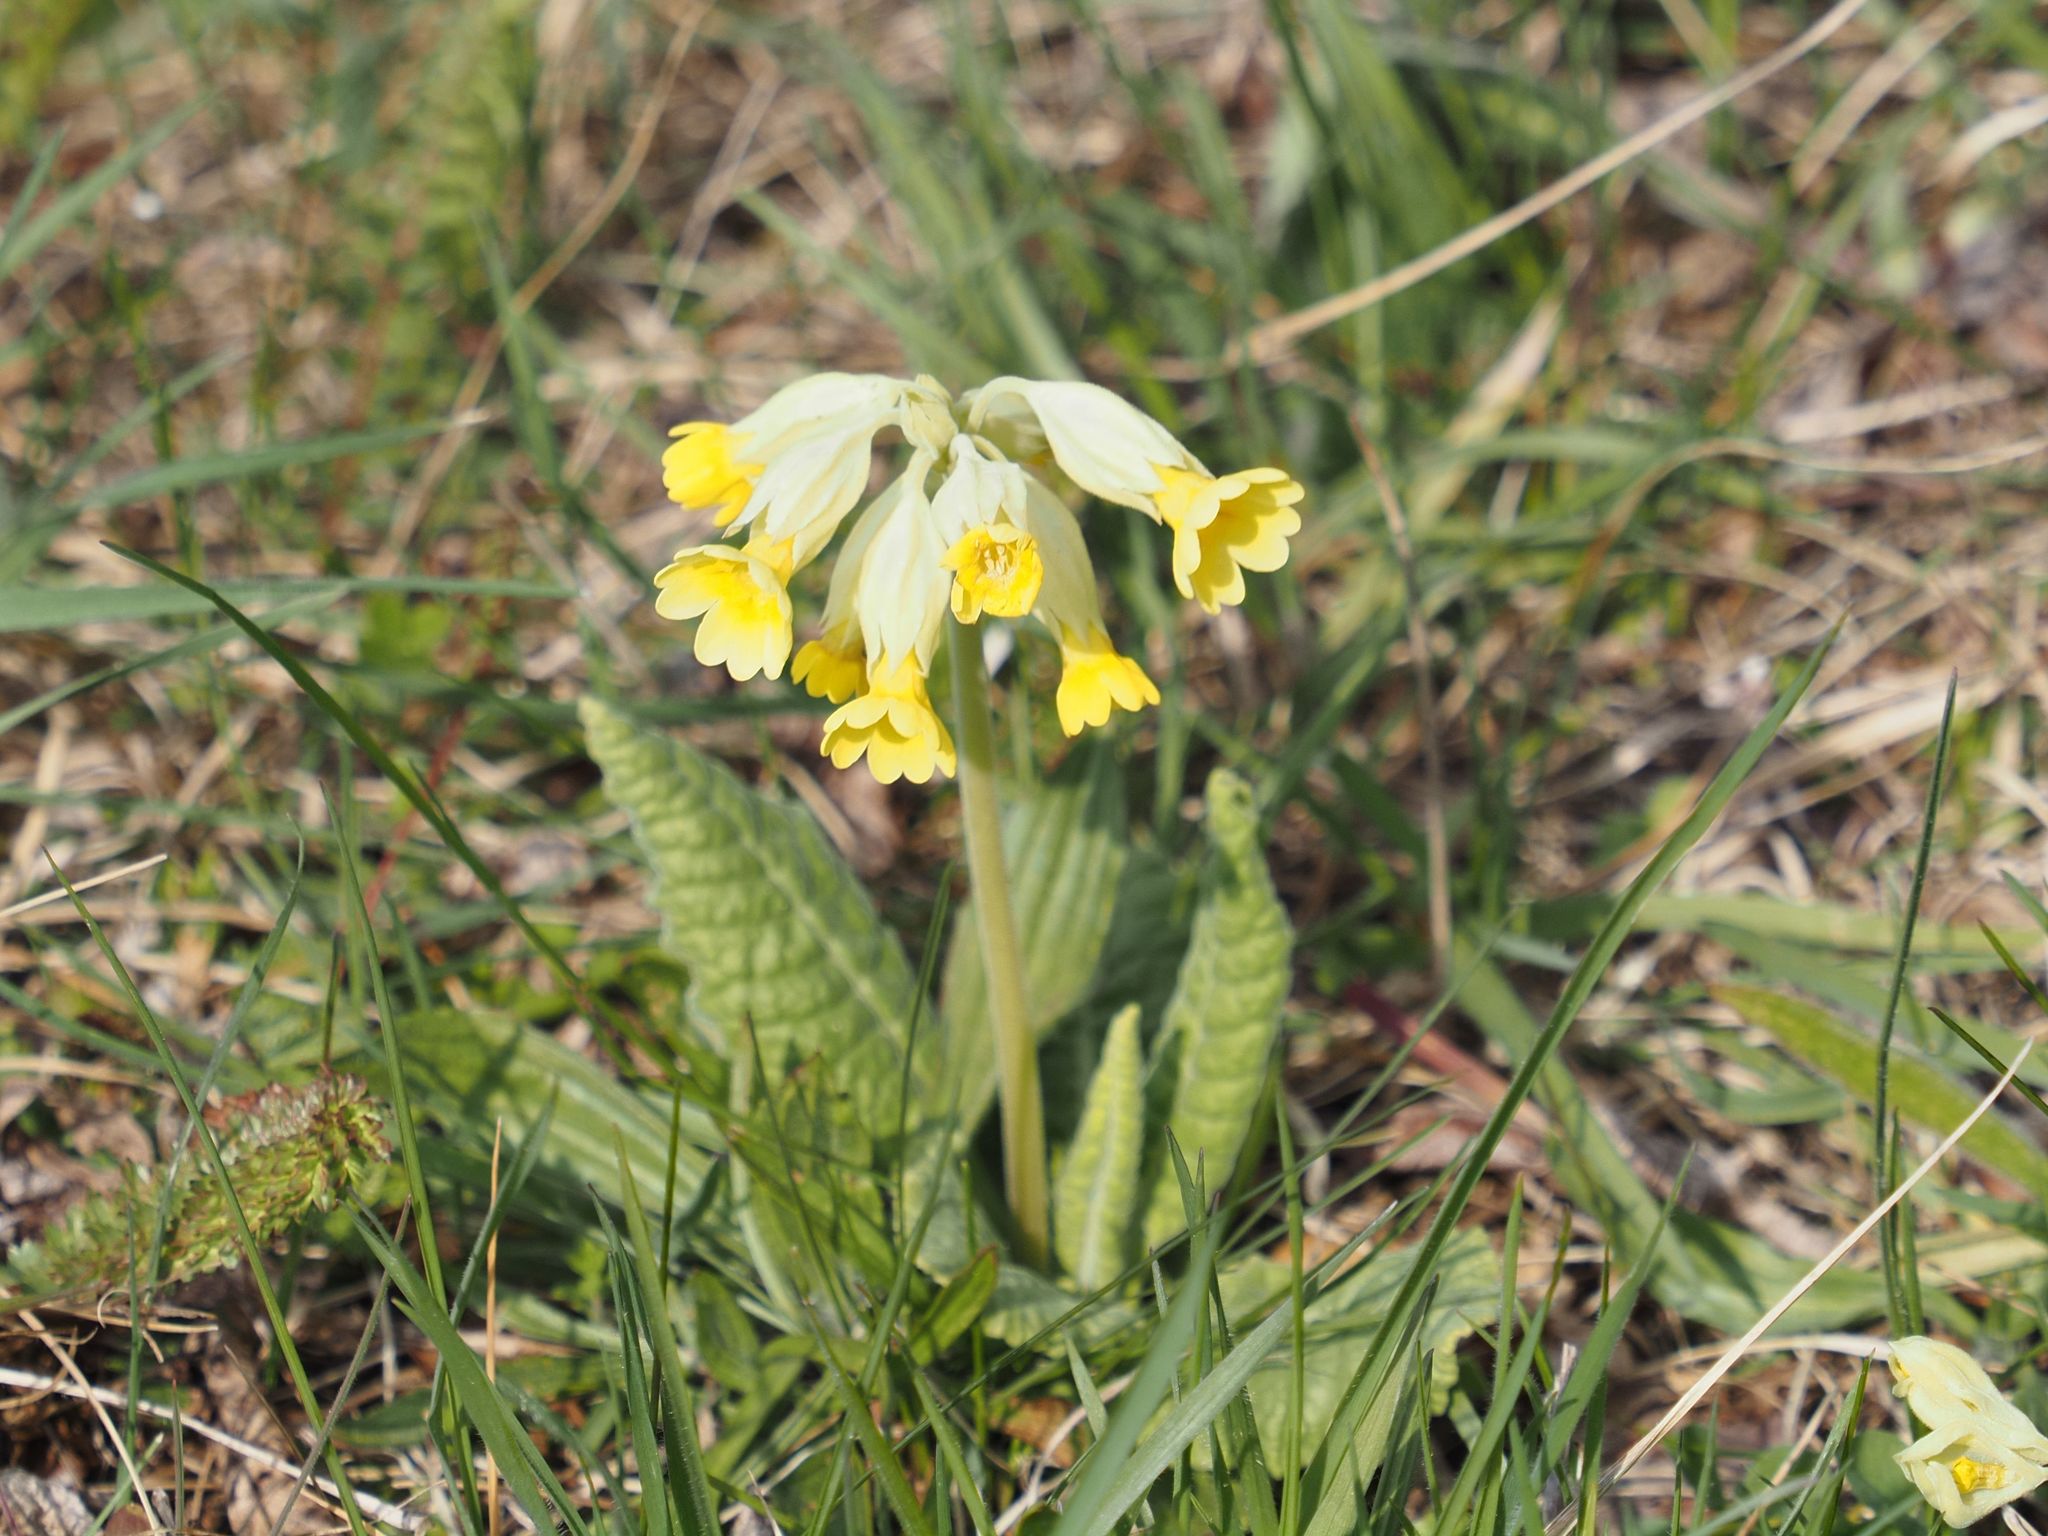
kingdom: Plantae
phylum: Tracheophyta
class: Magnoliopsida
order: Ericales
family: Primulaceae
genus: Primula
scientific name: Primula veris
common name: Cowslip
